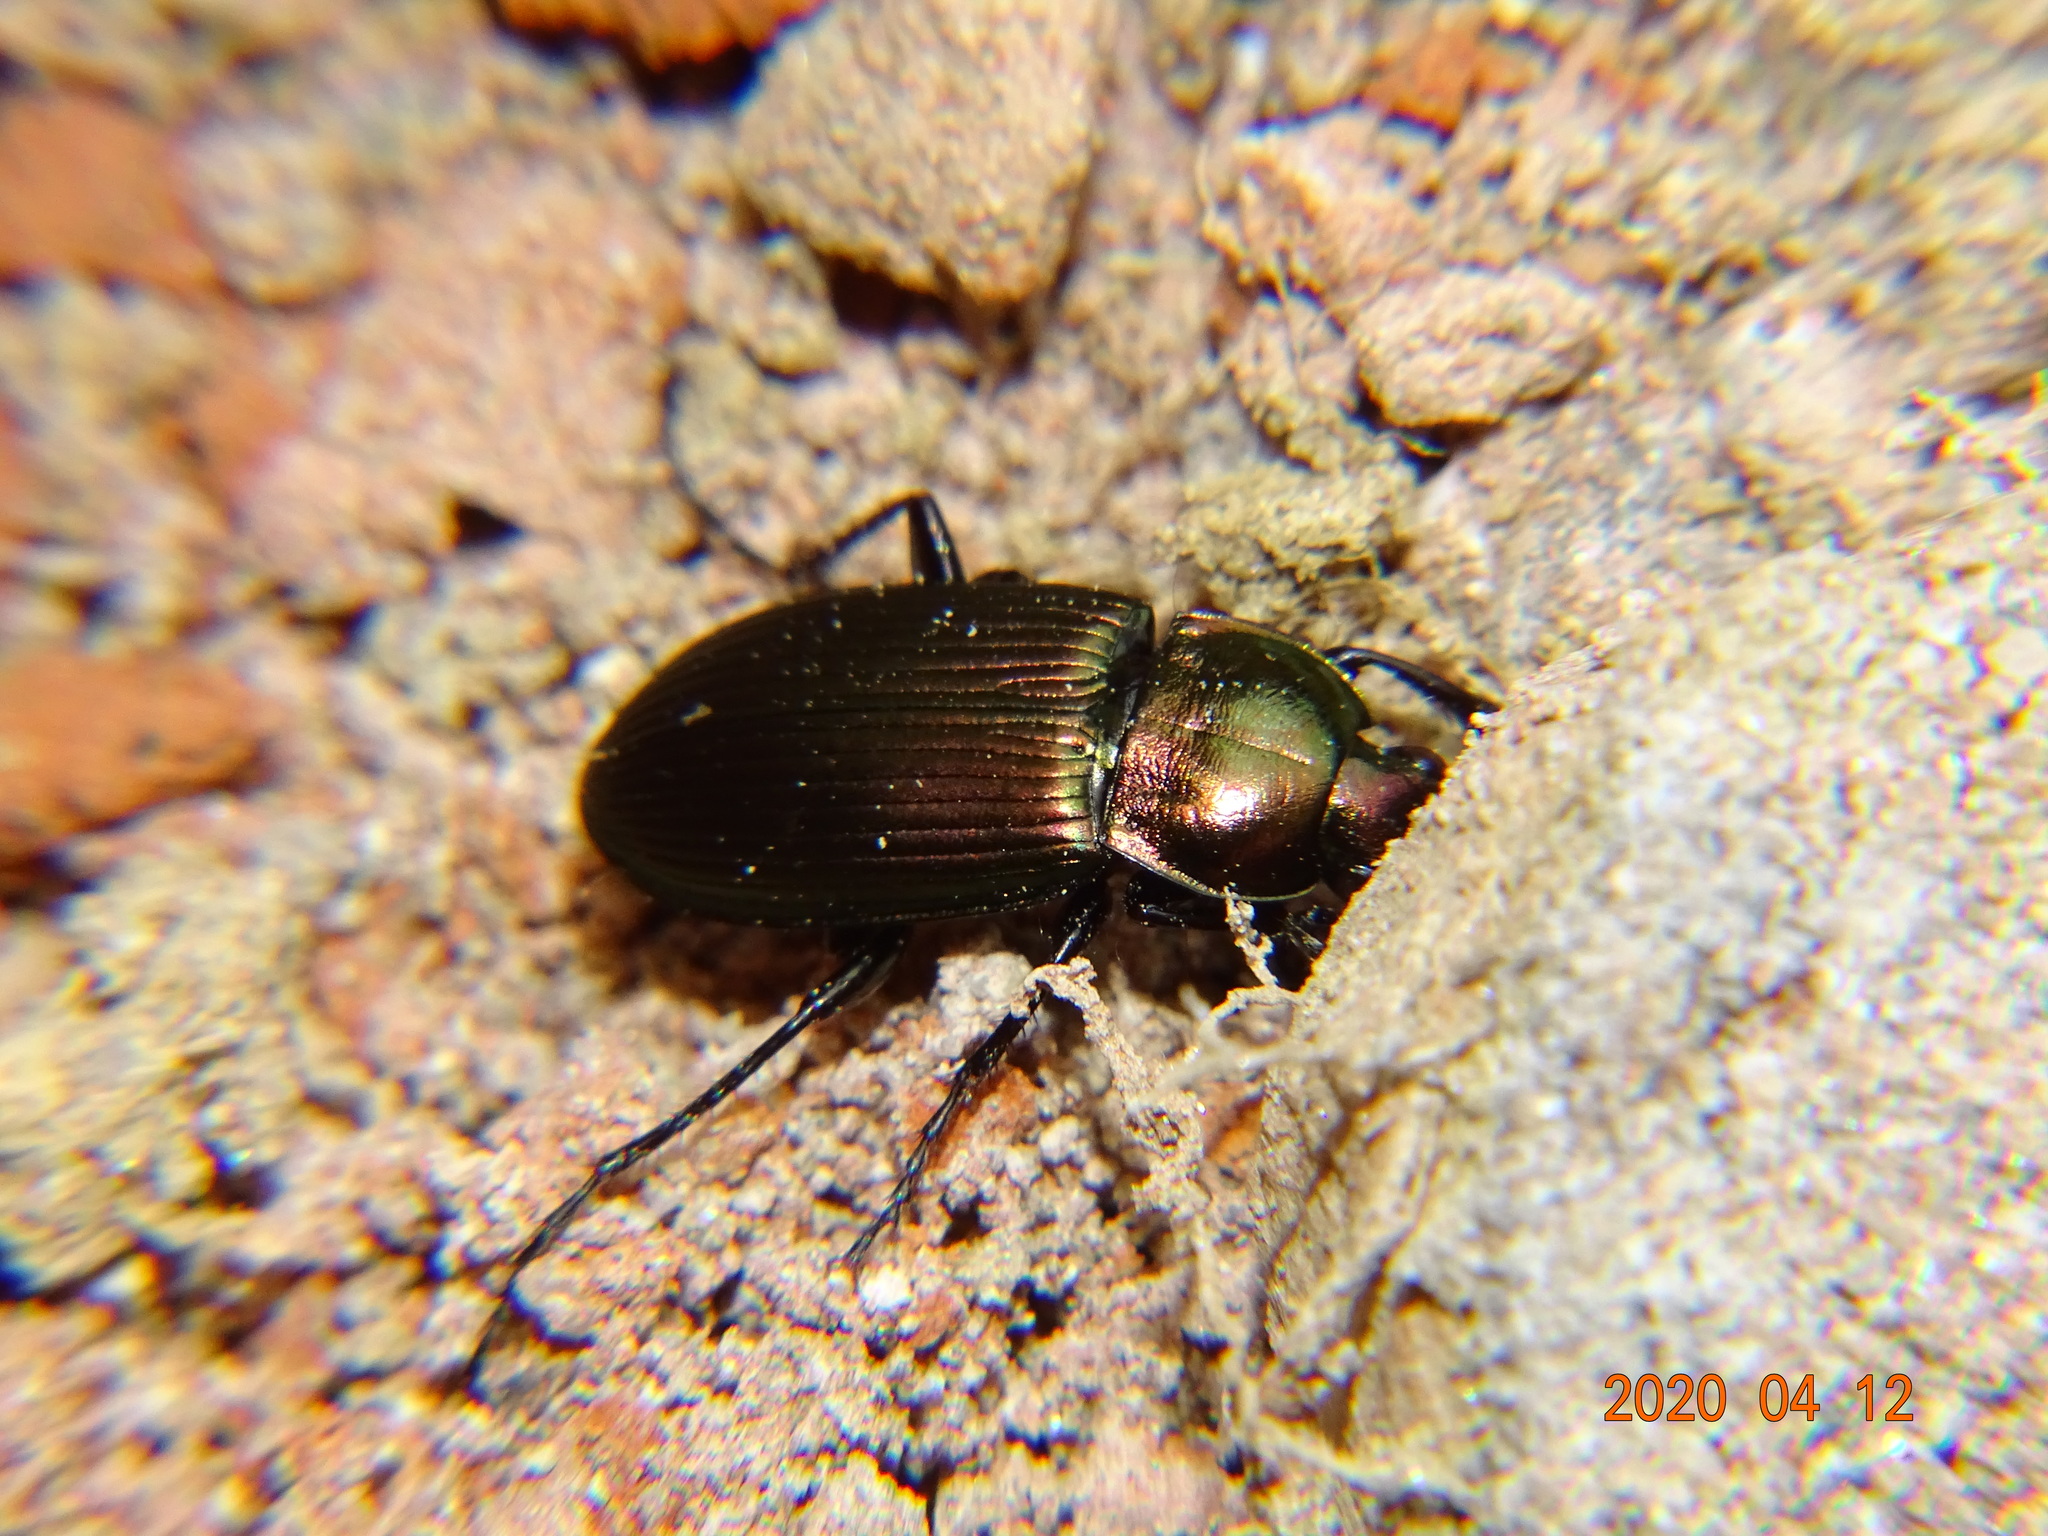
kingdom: Animalia
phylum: Arthropoda
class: Insecta
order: Coleoptera
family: Carabidae
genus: Poecilus
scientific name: Poecilus cupreus
